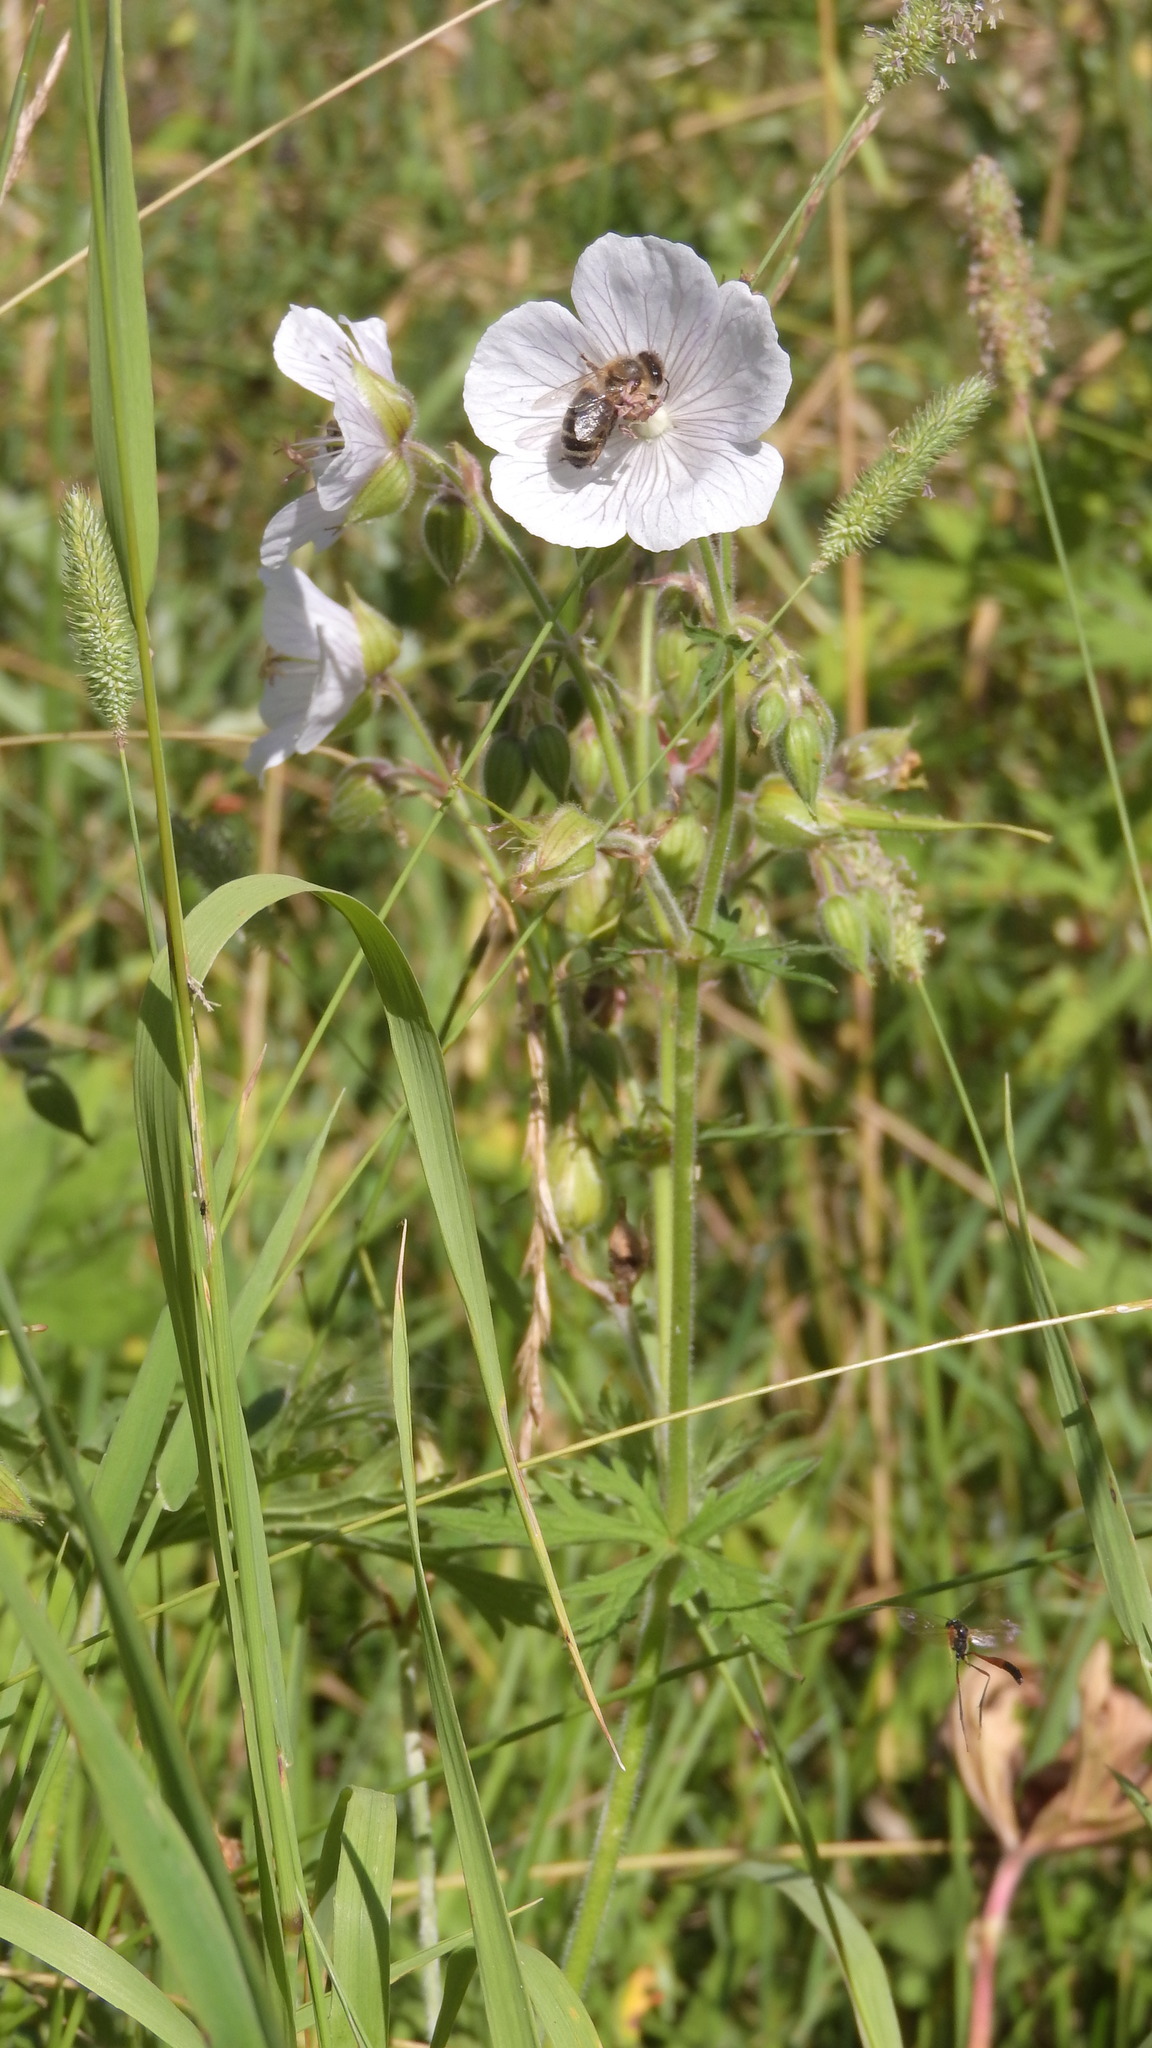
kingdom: Plantae
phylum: Tracheophyta
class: Magnoliopsida
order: Geraniales
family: Geraniaceae
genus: Geranium
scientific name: Geranium pratense
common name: Meadow crane's-bill
